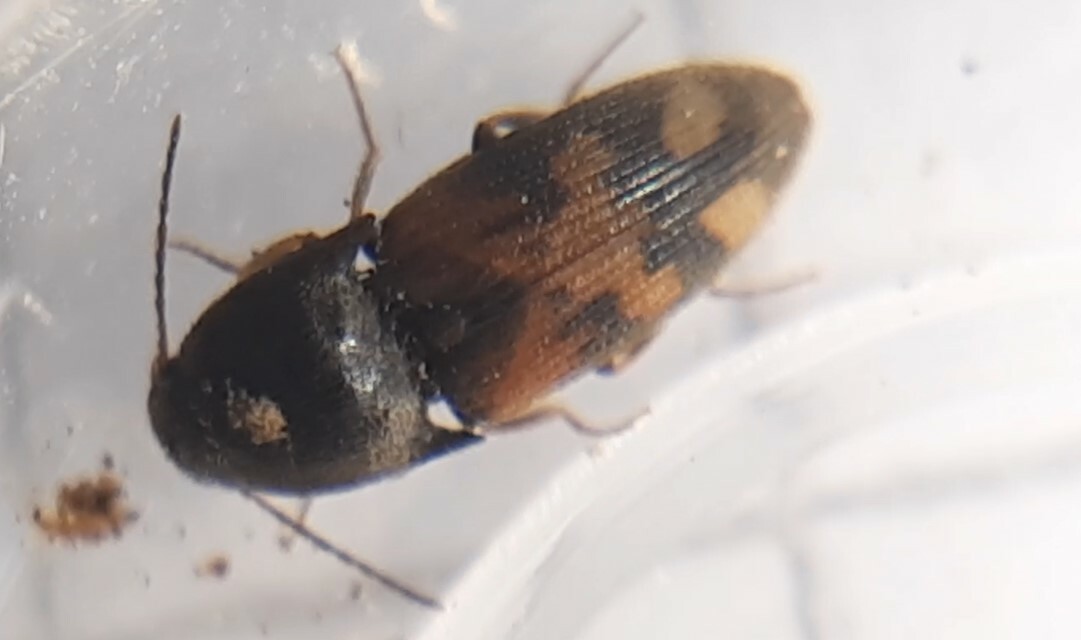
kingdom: Animalia
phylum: Arthropoda
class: Insecta
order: Coleoptera
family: Elateridae
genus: Drasterius
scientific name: Drasterius bimaculatus
